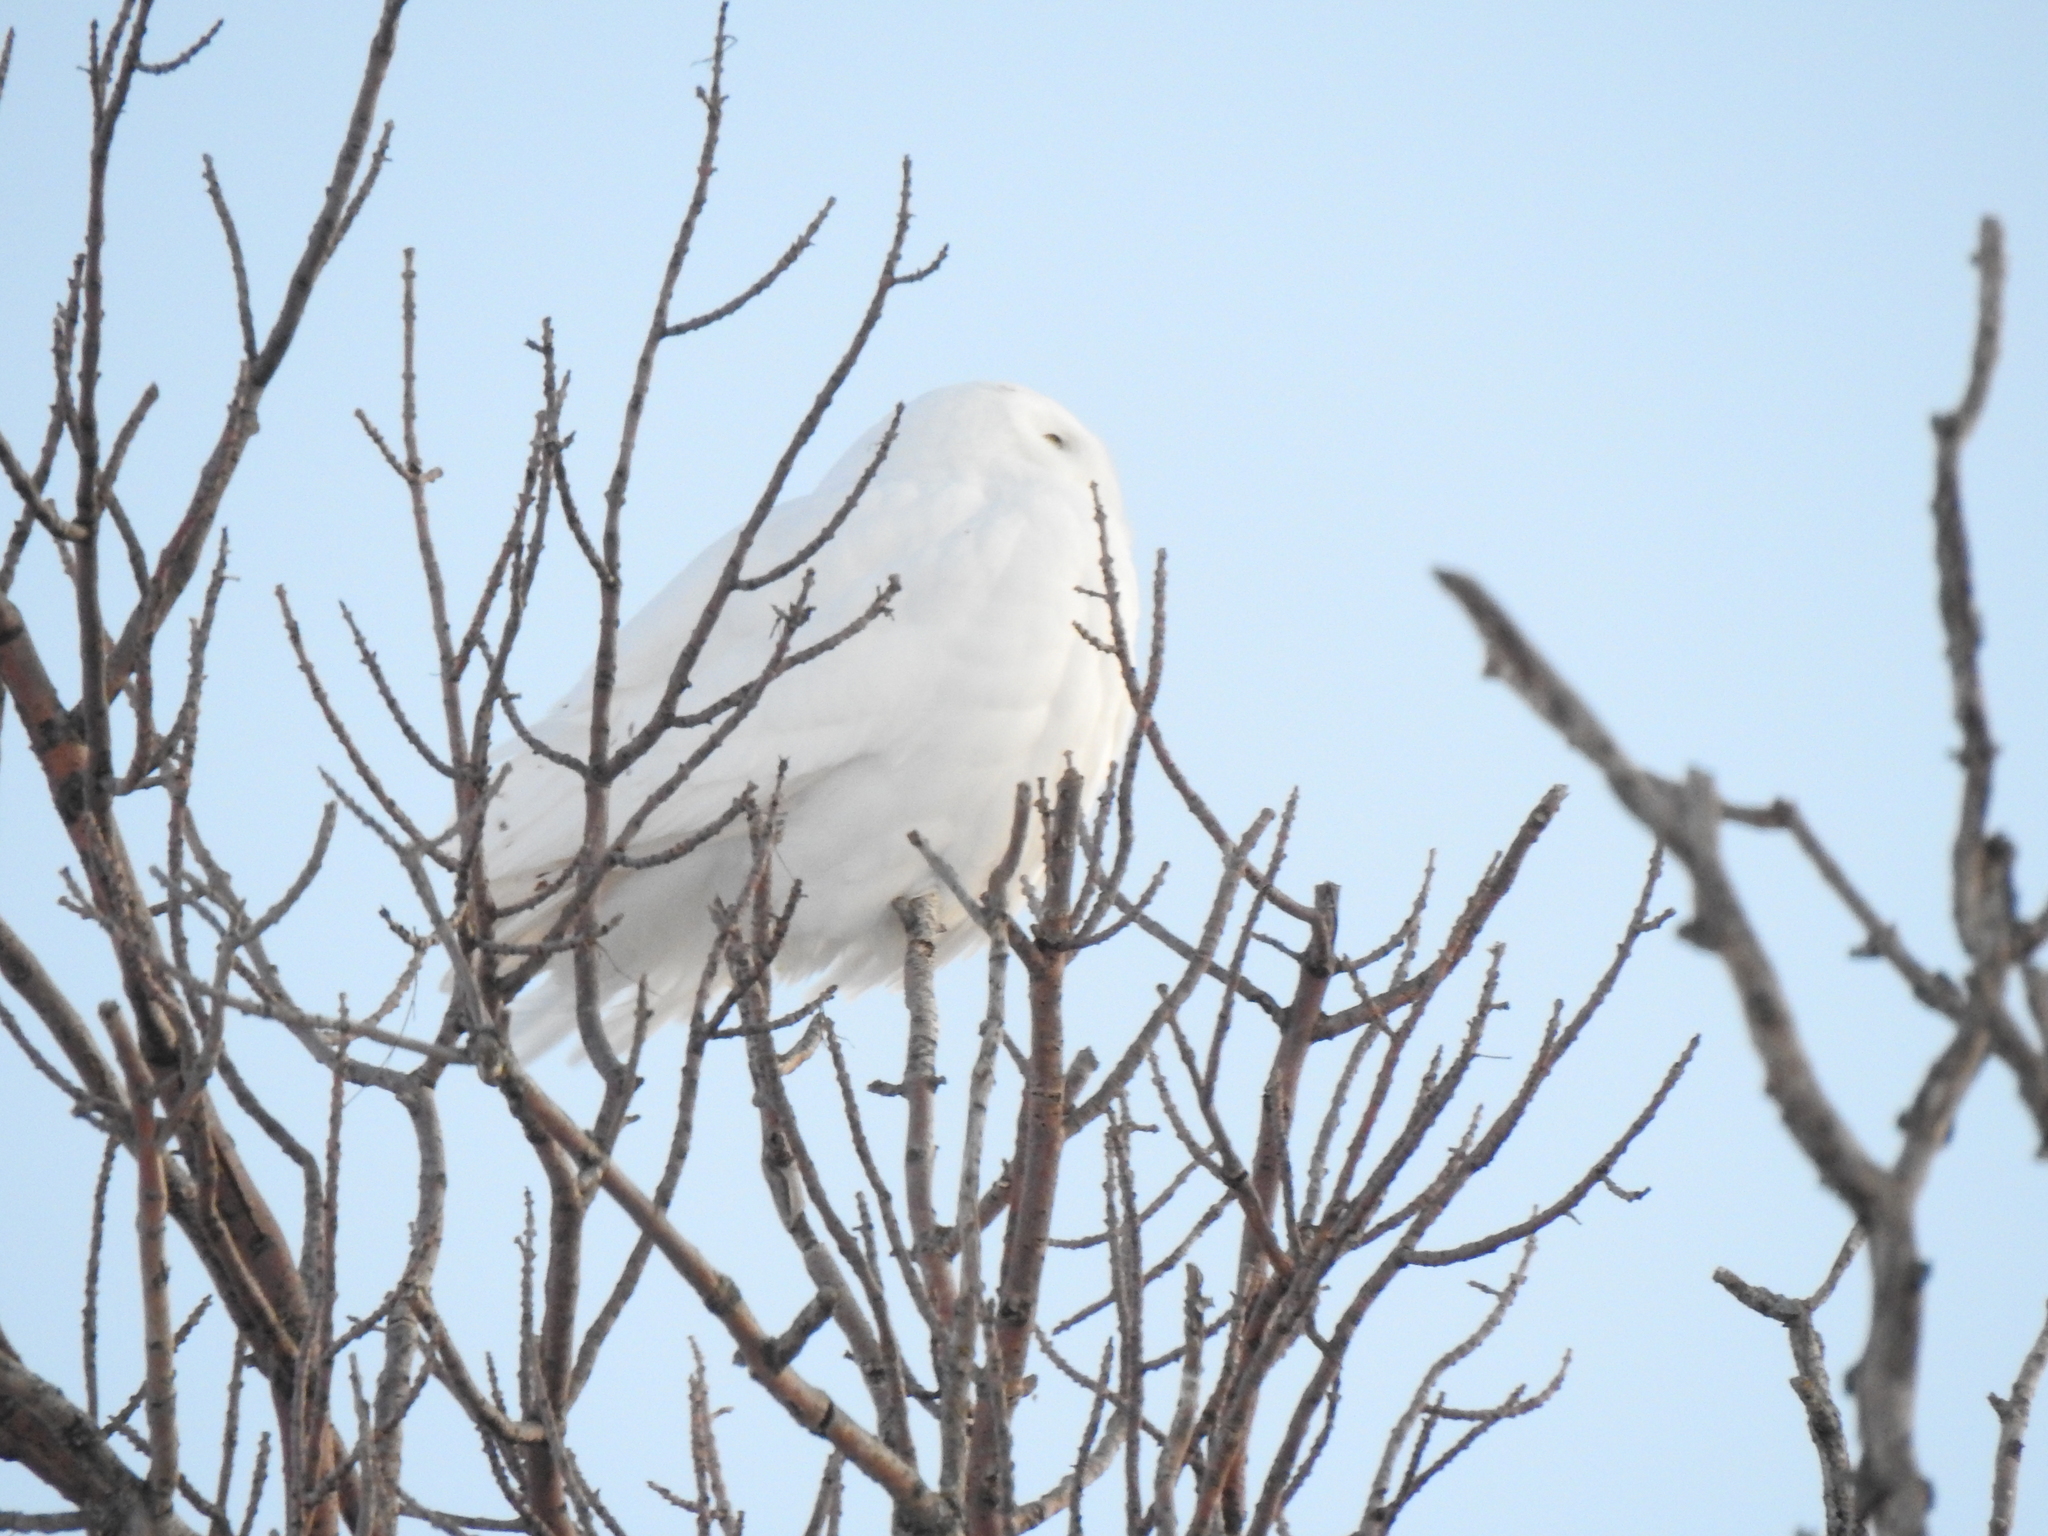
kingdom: Animalia
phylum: Chordata
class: Aves
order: Strigiformes
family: Strigidae
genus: Bubo
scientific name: Bubo scandiacus
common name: Snowy owl
